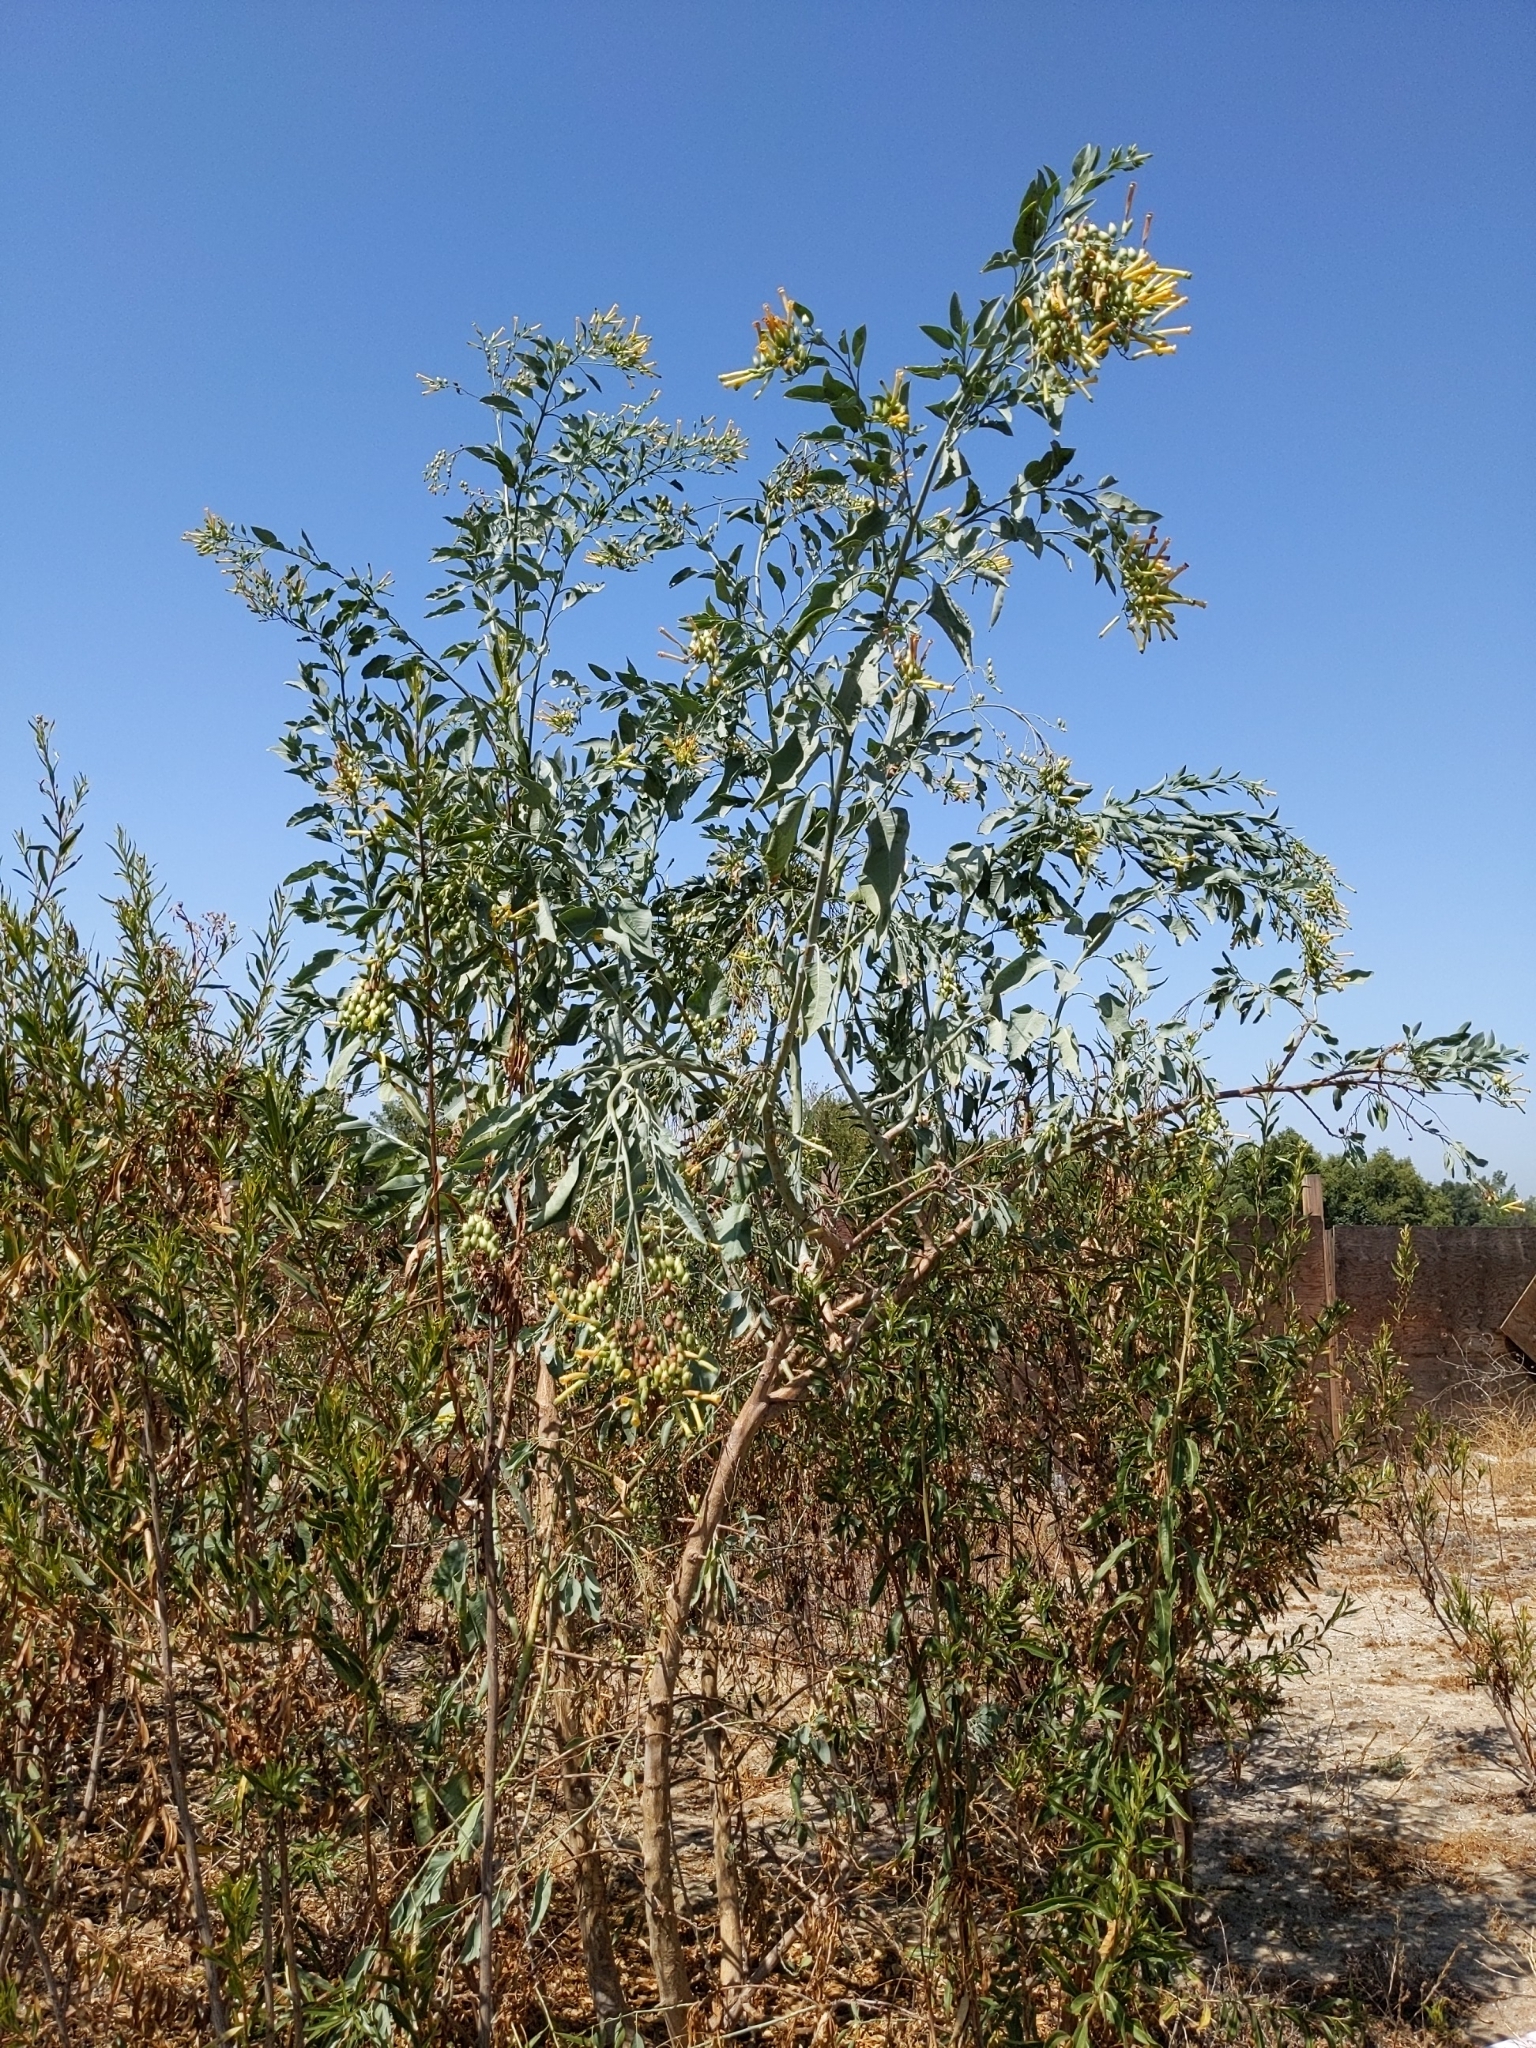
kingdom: Plantae
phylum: Tracheophyta
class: Magnoliopsida
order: Solanales
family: Solanaceae
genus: Nicotiana
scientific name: Nicotiana glauca
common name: Tree tobacco
